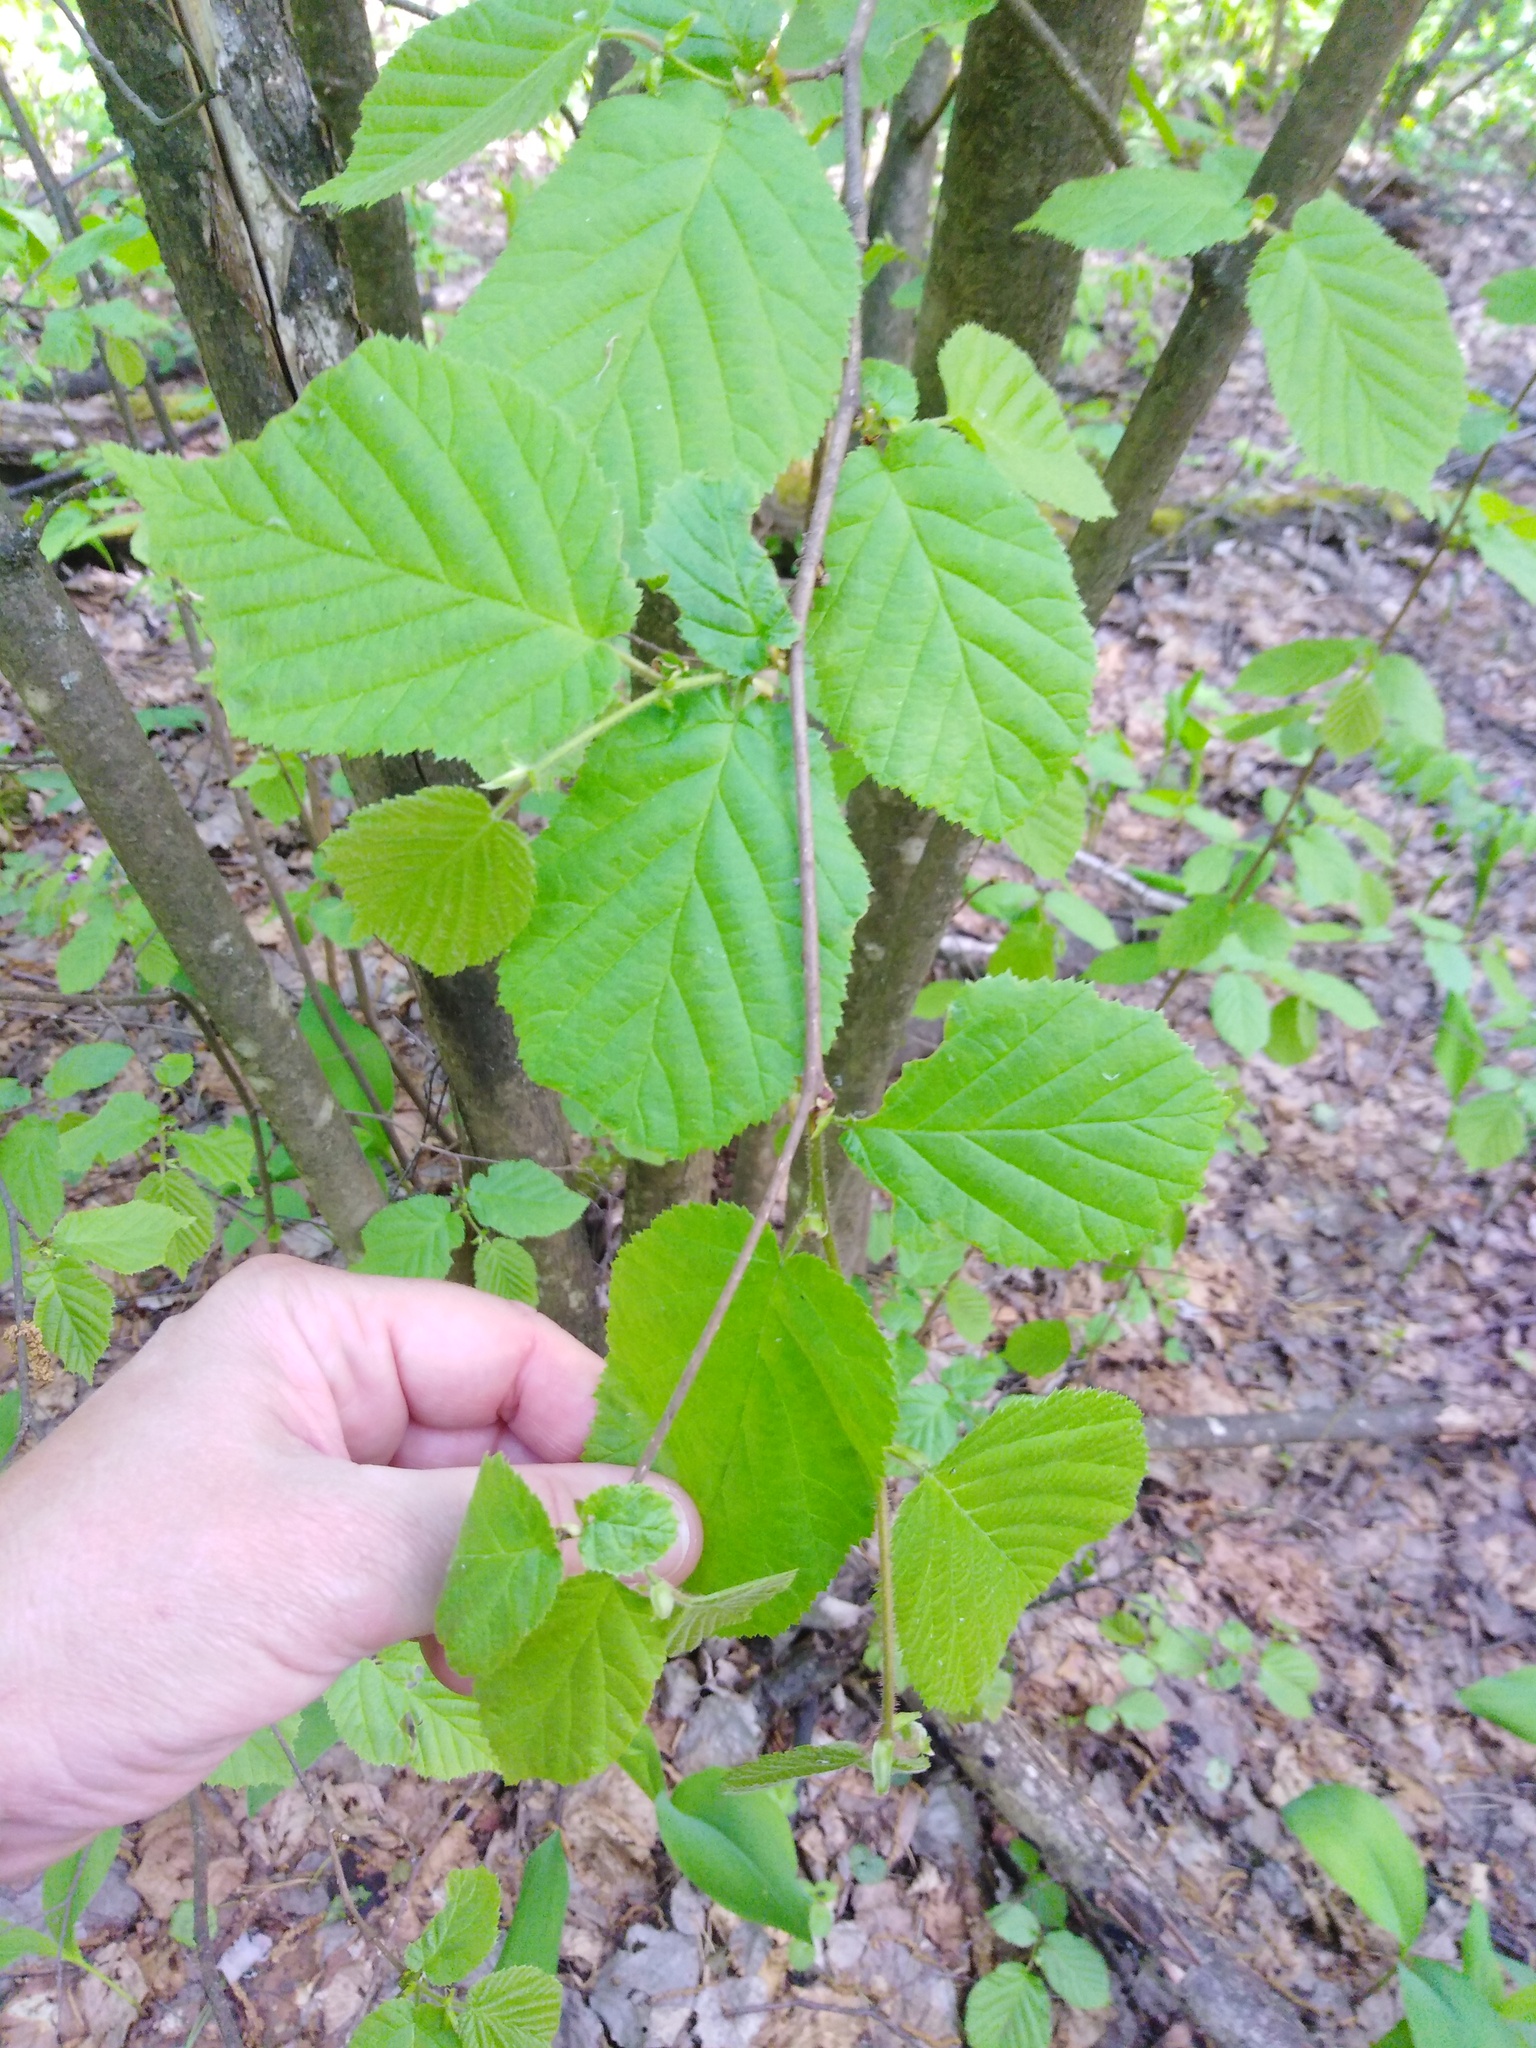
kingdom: Plantae
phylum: Tracheophyta
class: Magnoliopsida
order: Fagales
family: Betulaceae
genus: Corylus
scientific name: Corylus avellana
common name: European hazel
